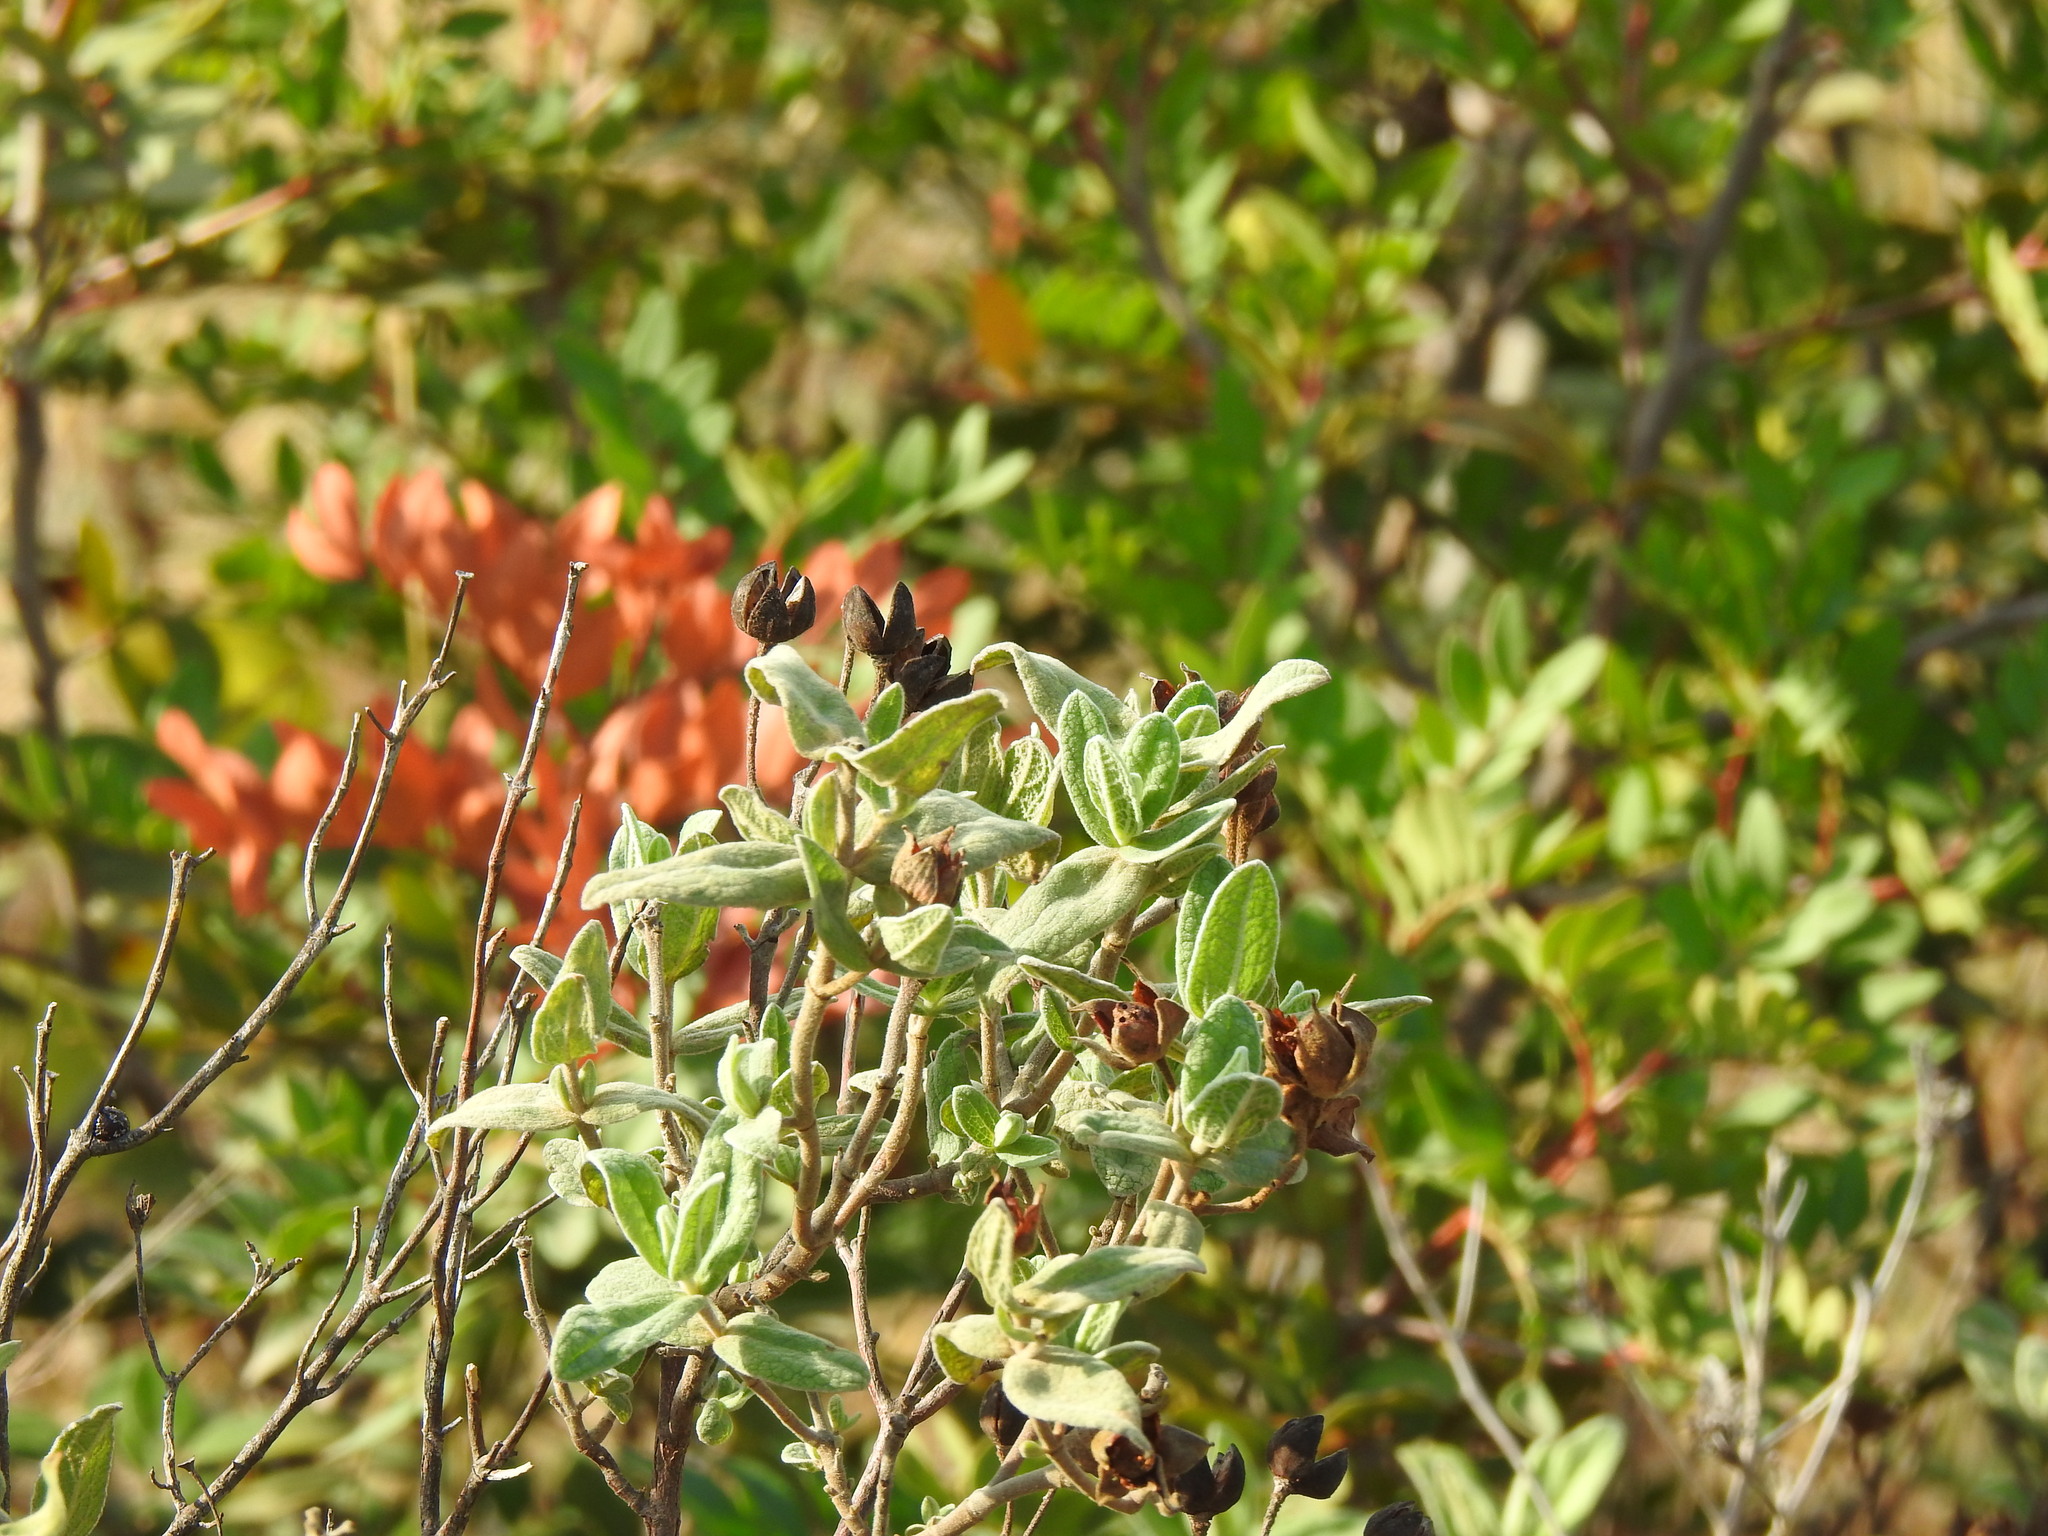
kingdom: Plantae
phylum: Tracheophyta
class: Magnoliopsida
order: Malvales
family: Cistaceae
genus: Cistus
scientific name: Cistus albidus
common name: White-leaf rock-rose
